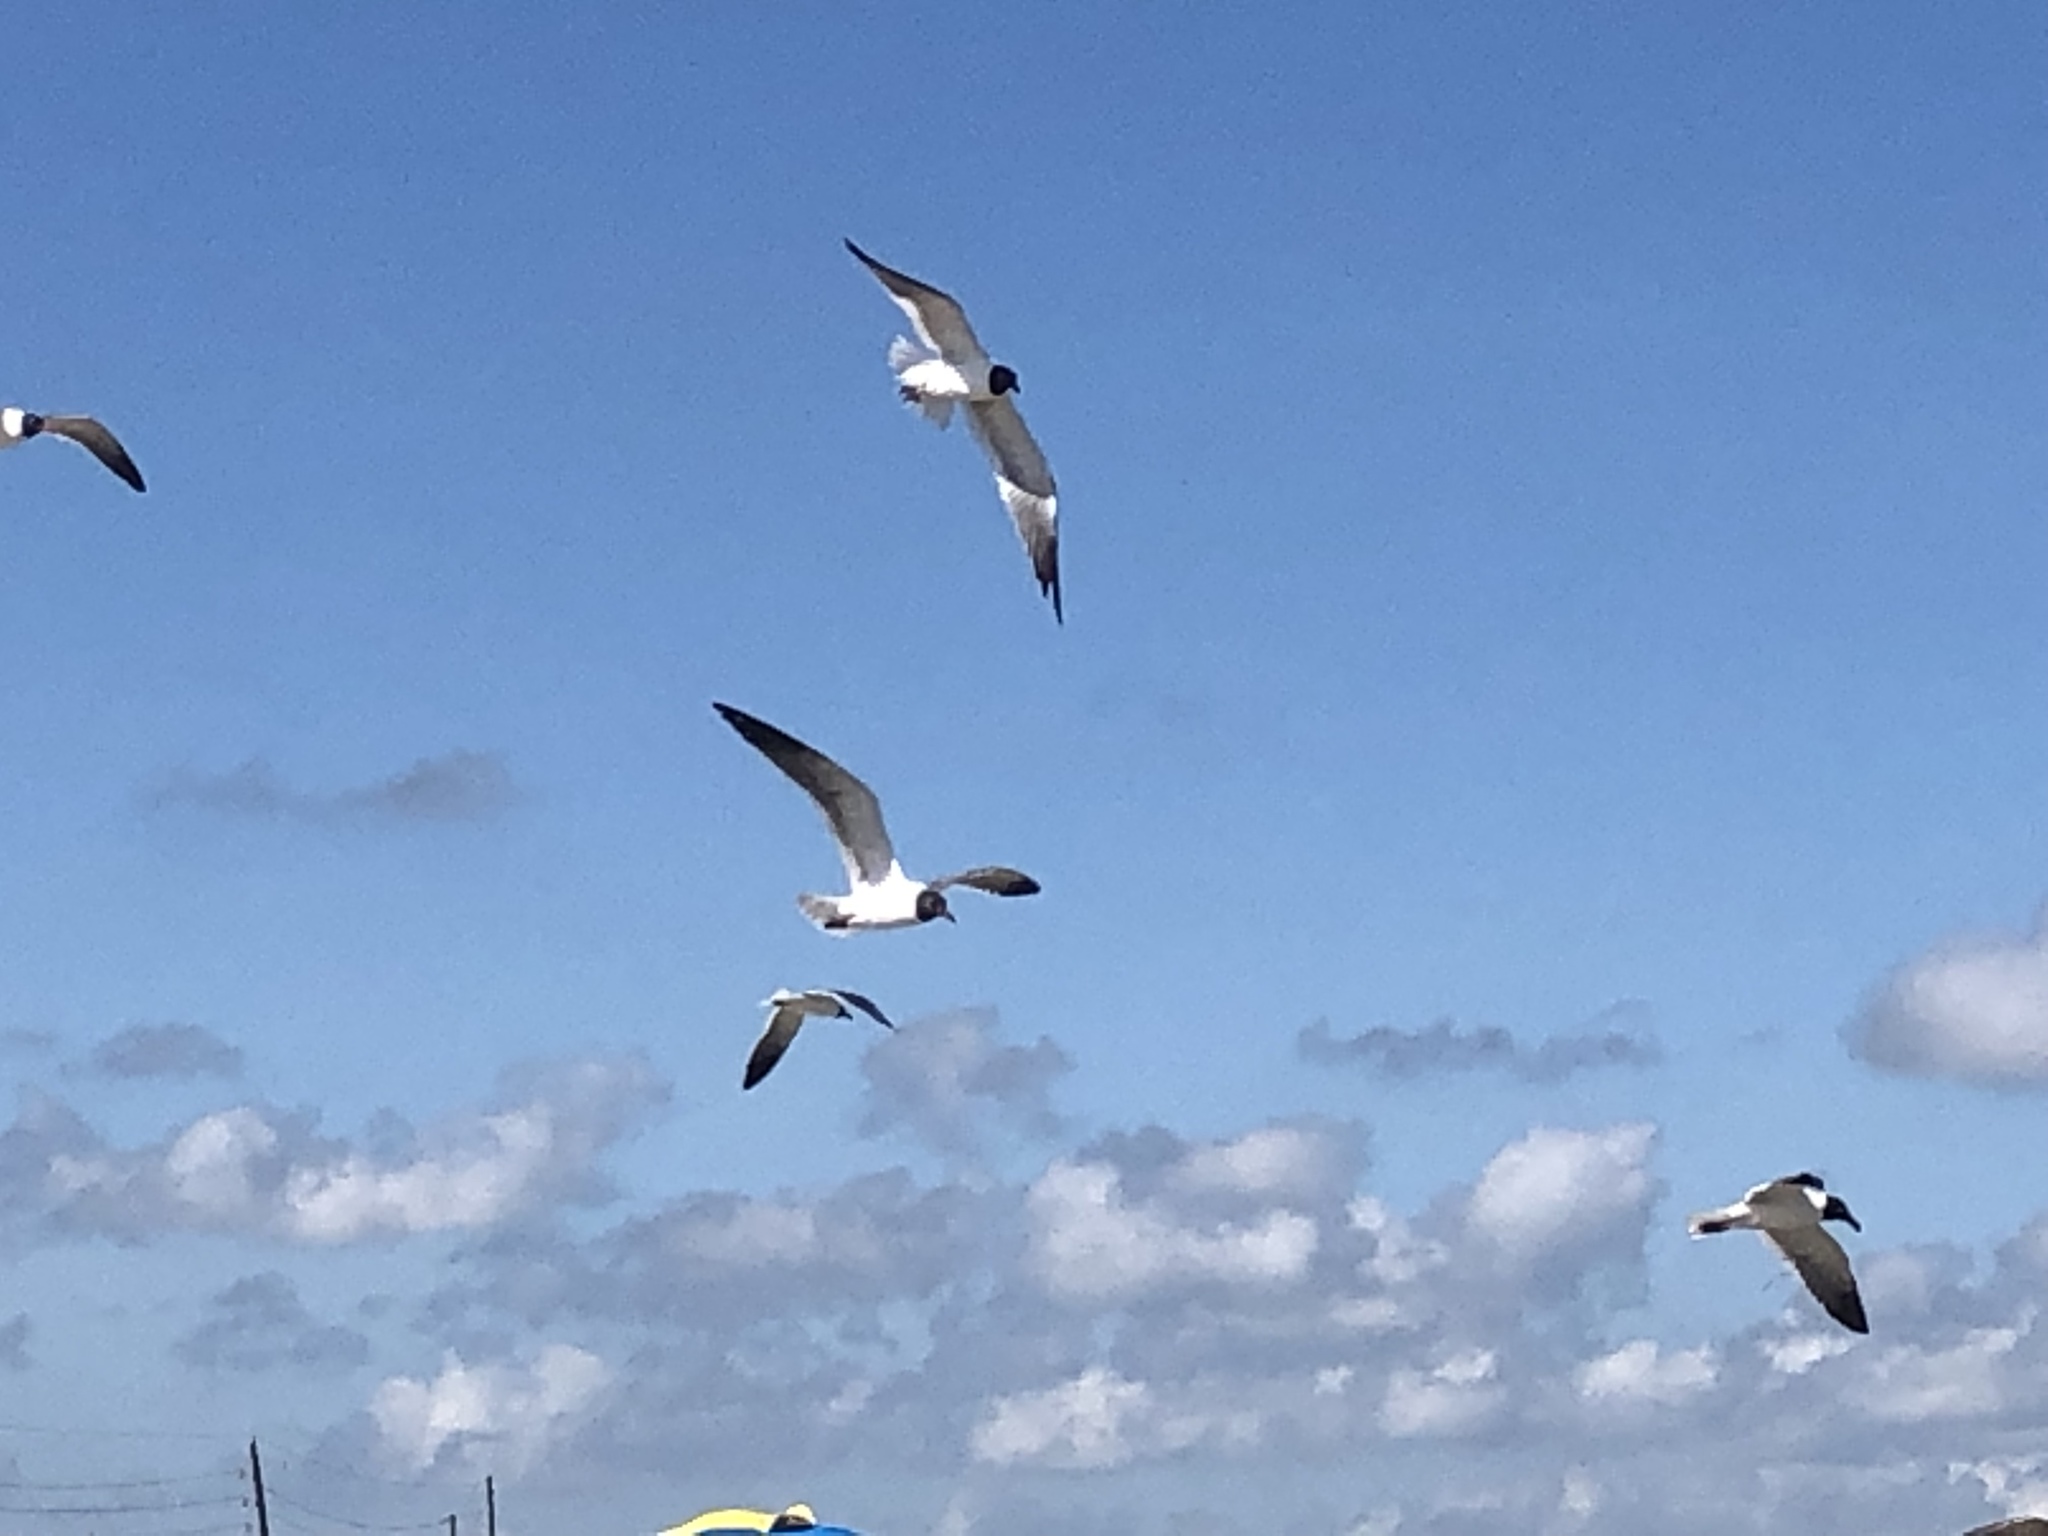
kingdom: Animalia
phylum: Chordata
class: Aves
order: Charadriiformes
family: Laridae
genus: Leucophaeus
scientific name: Leucophaeus atricilla
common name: Laughing gull
